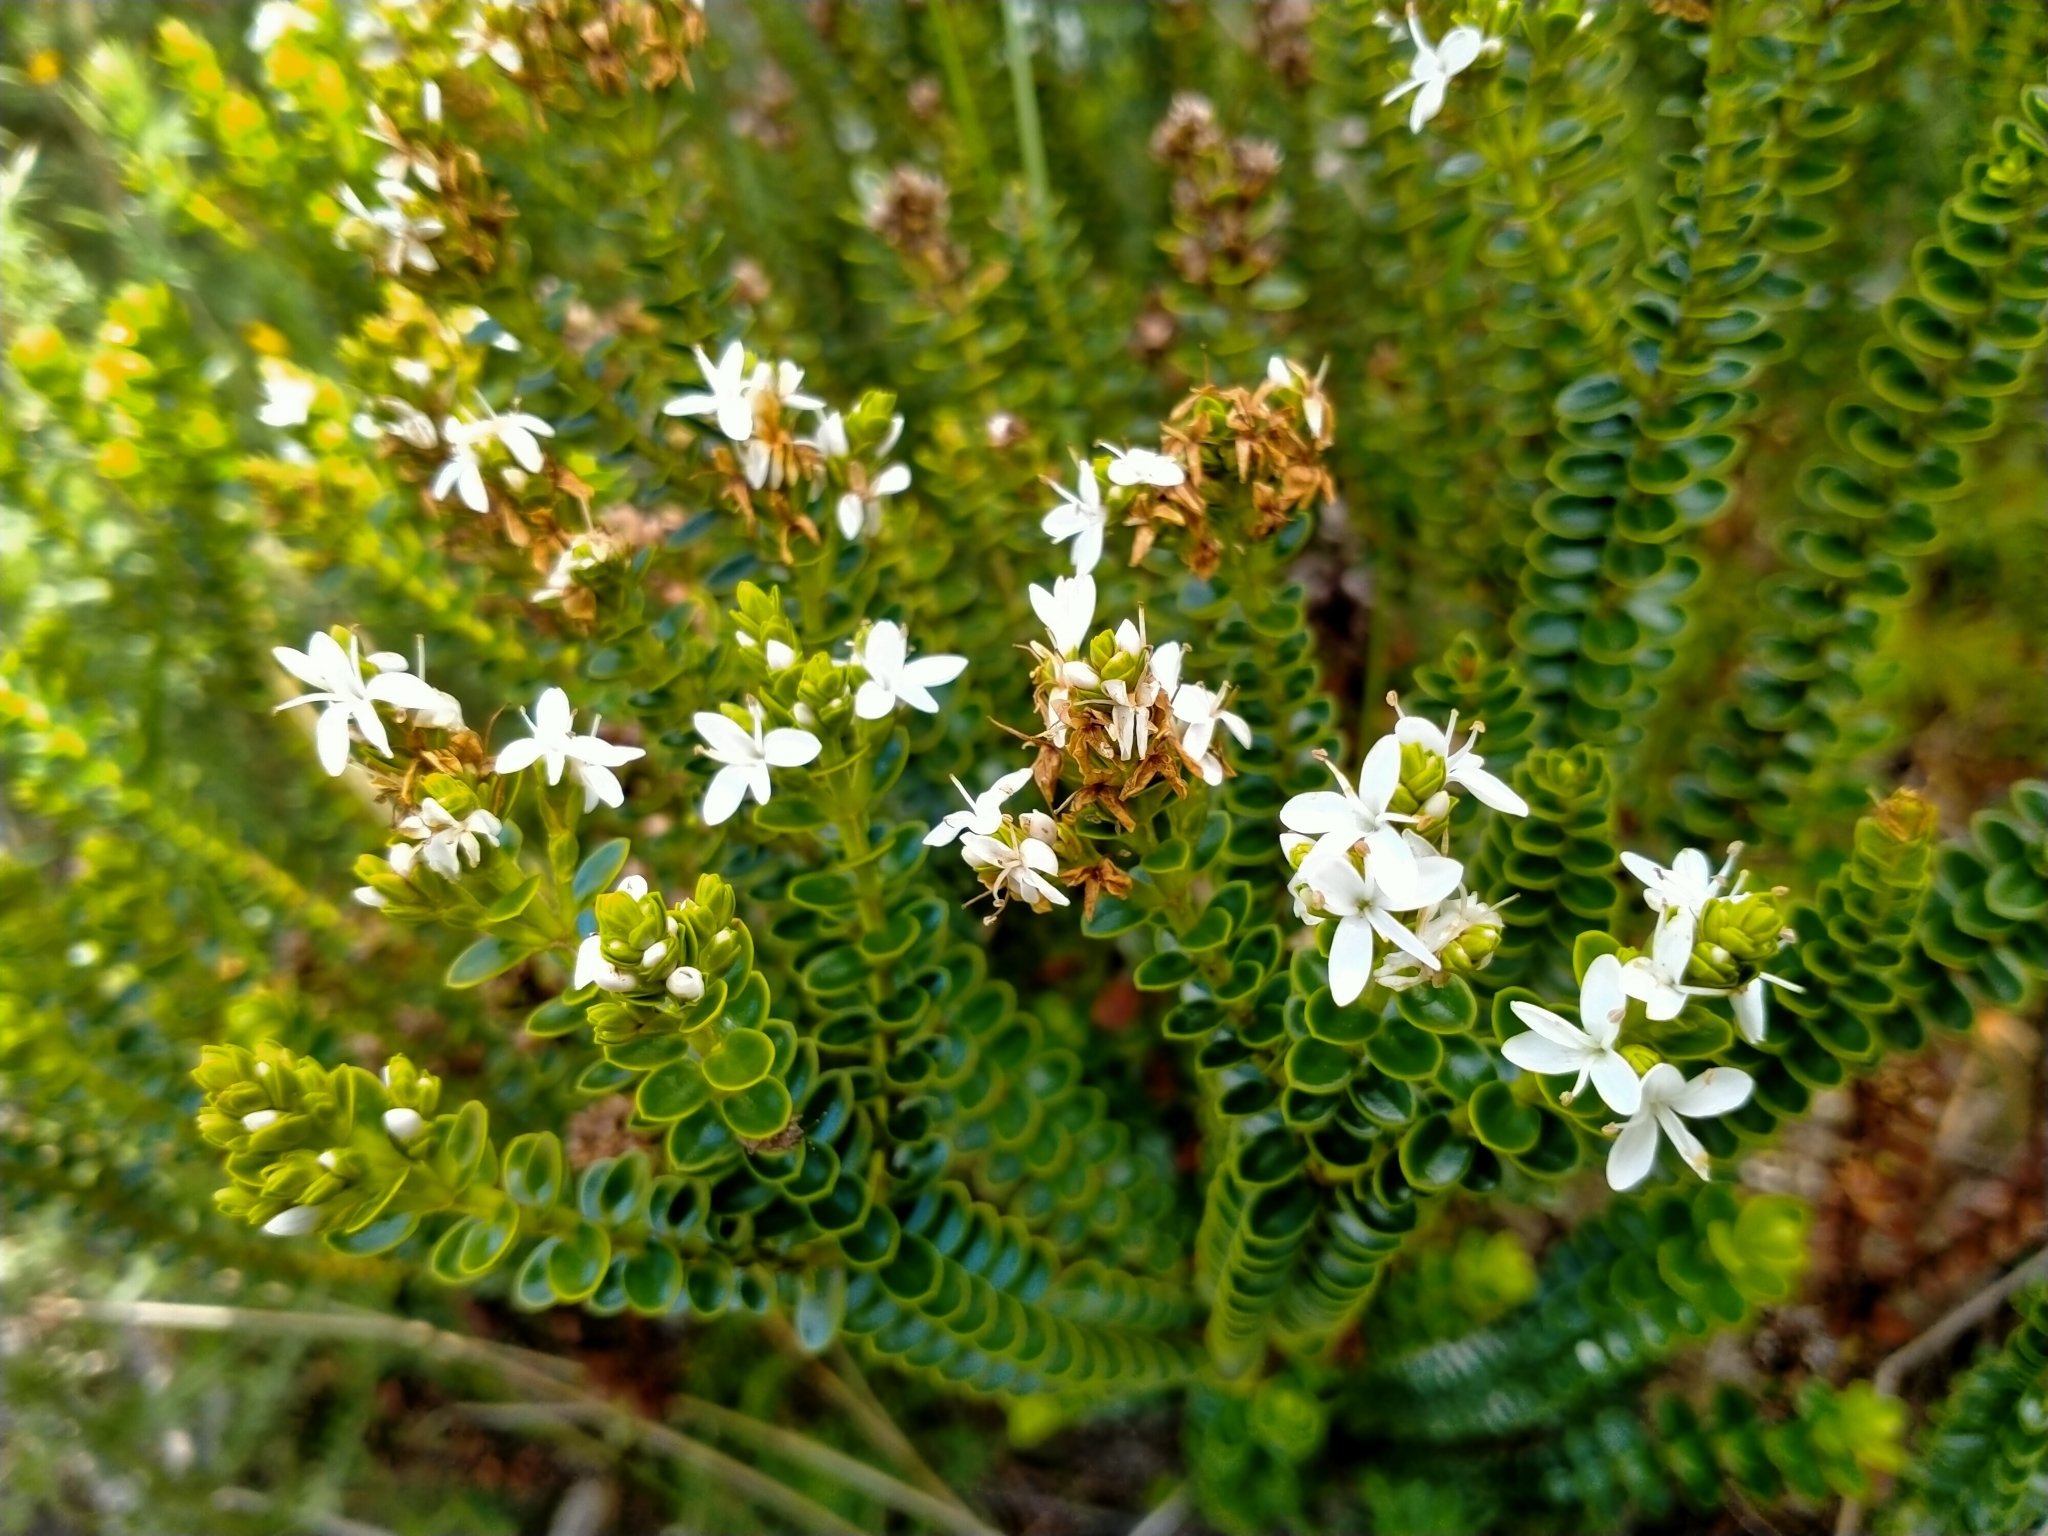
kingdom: Plantae
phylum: Tracheophyta
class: Magnoliopsida
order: Lamiales
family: Plantaginaceae
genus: Veronica
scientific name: Veronica odora
